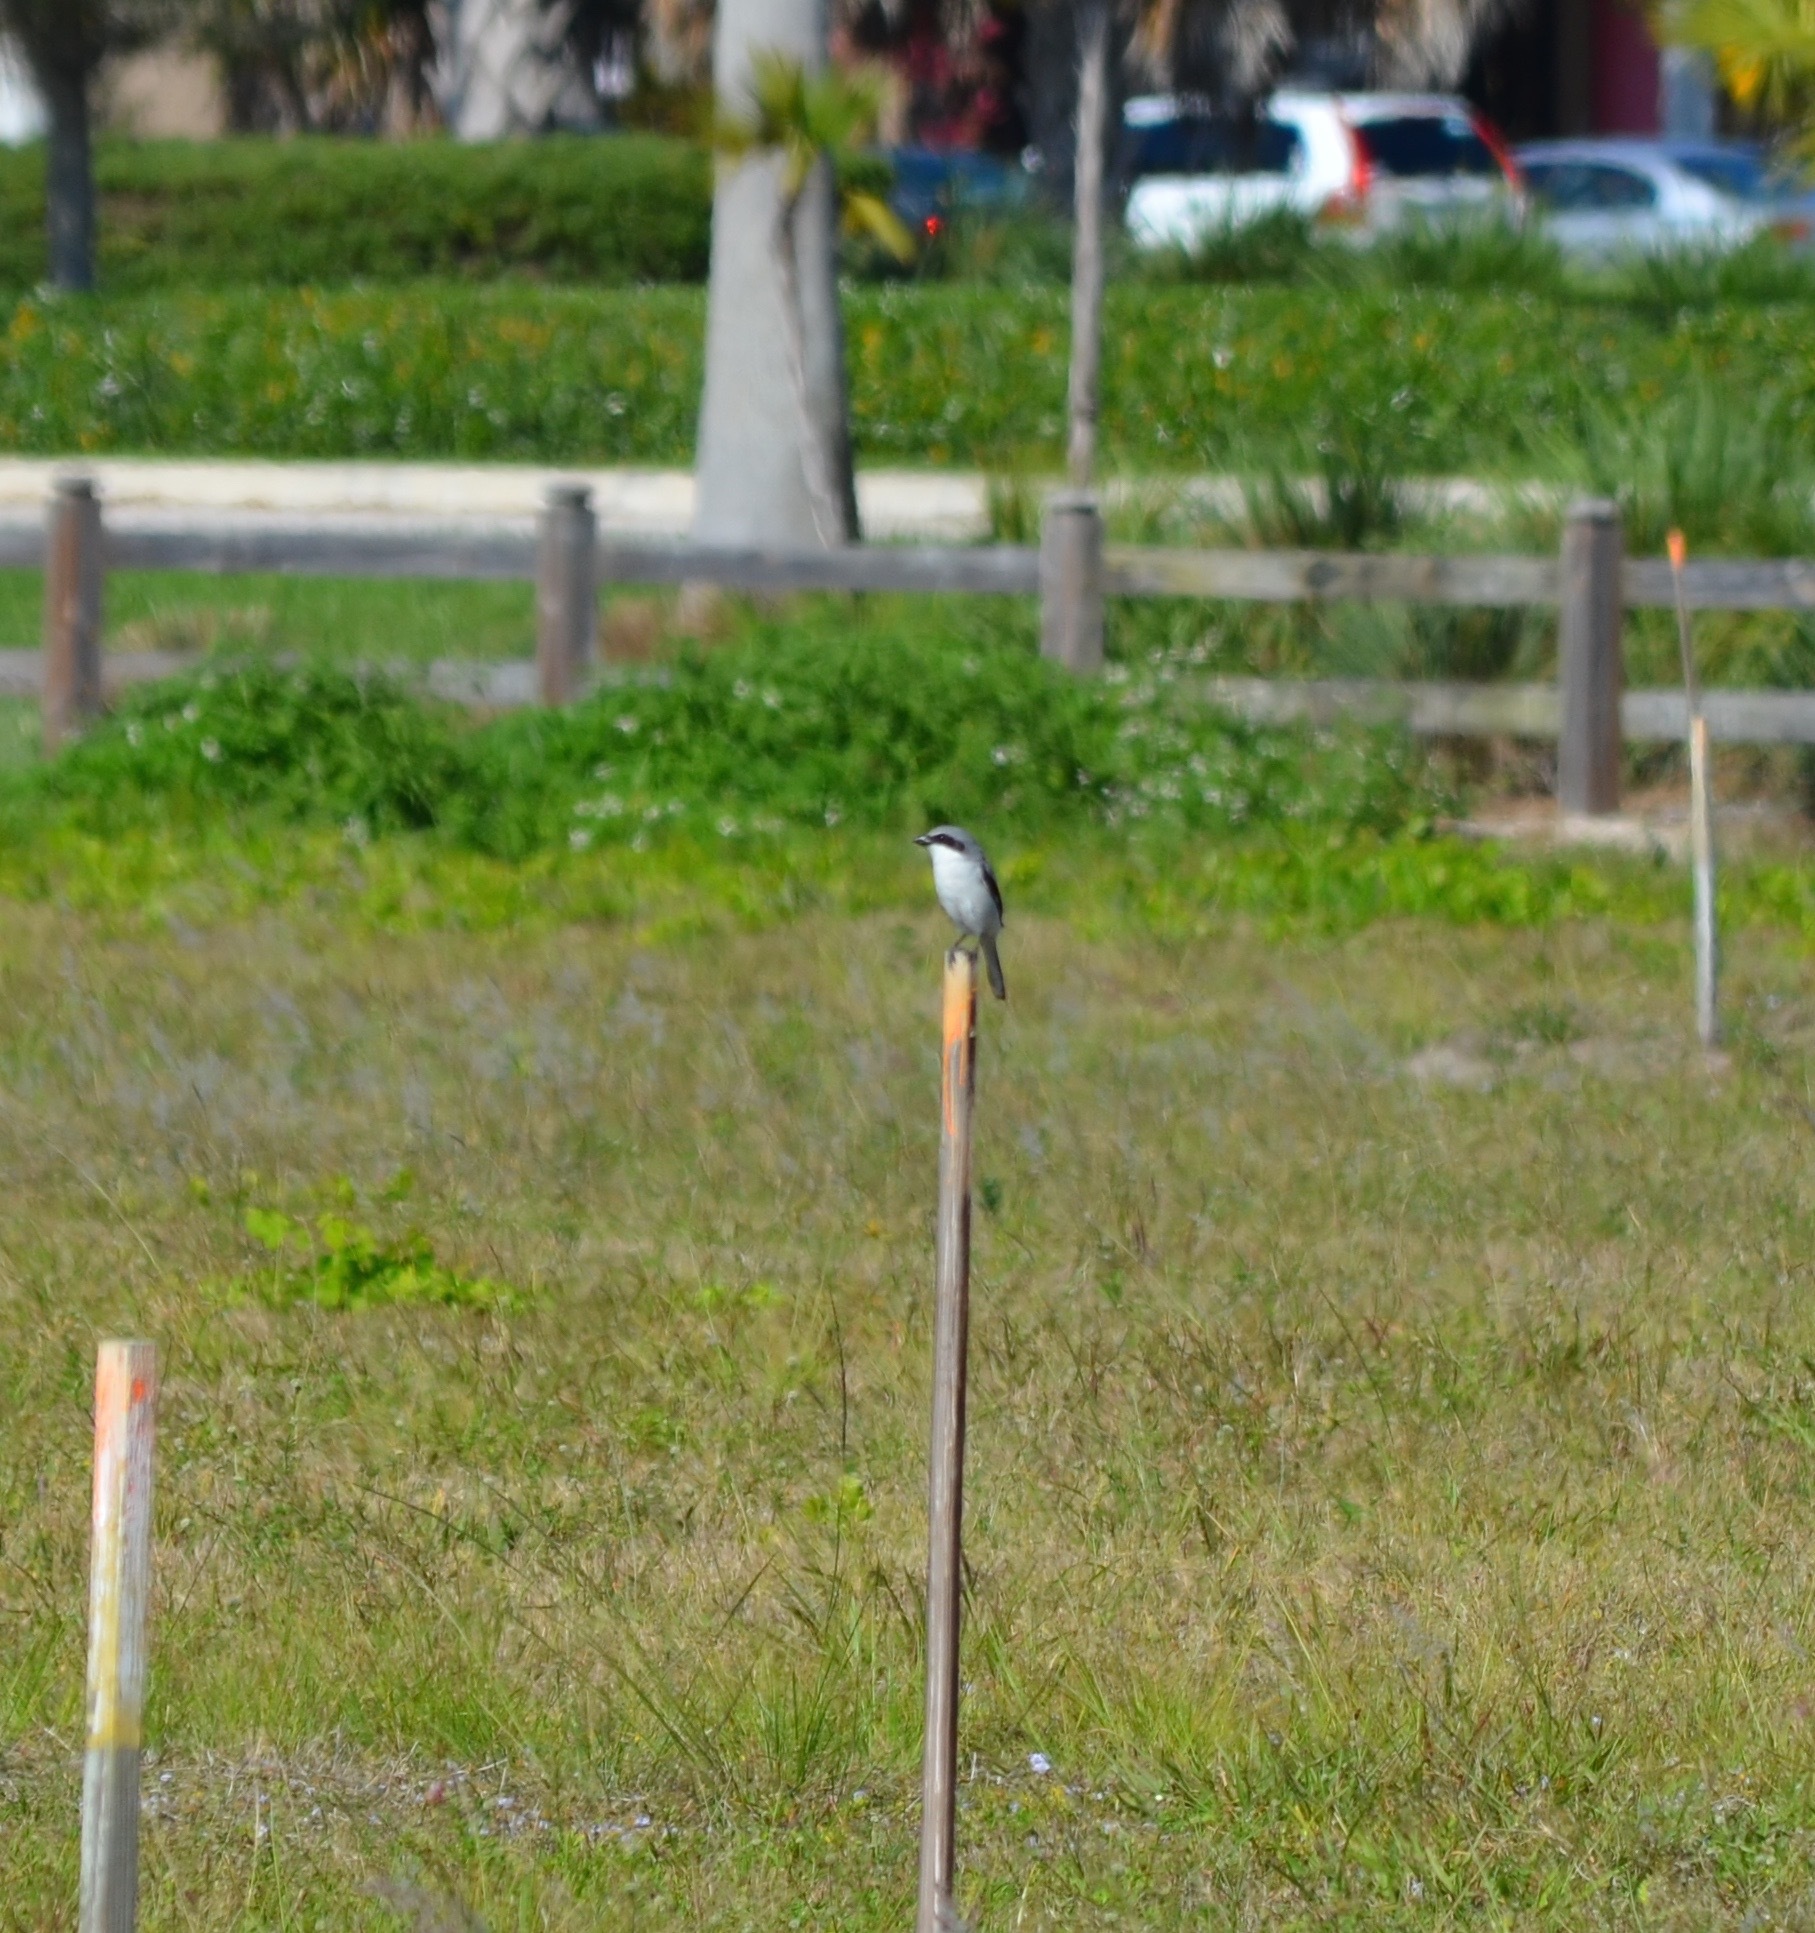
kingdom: Animalia
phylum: Chordata
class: Aves
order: Passeriformes
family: Laniidae
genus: Lanius
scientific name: Lanius ludovicianus
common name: Loggerhead shrike
